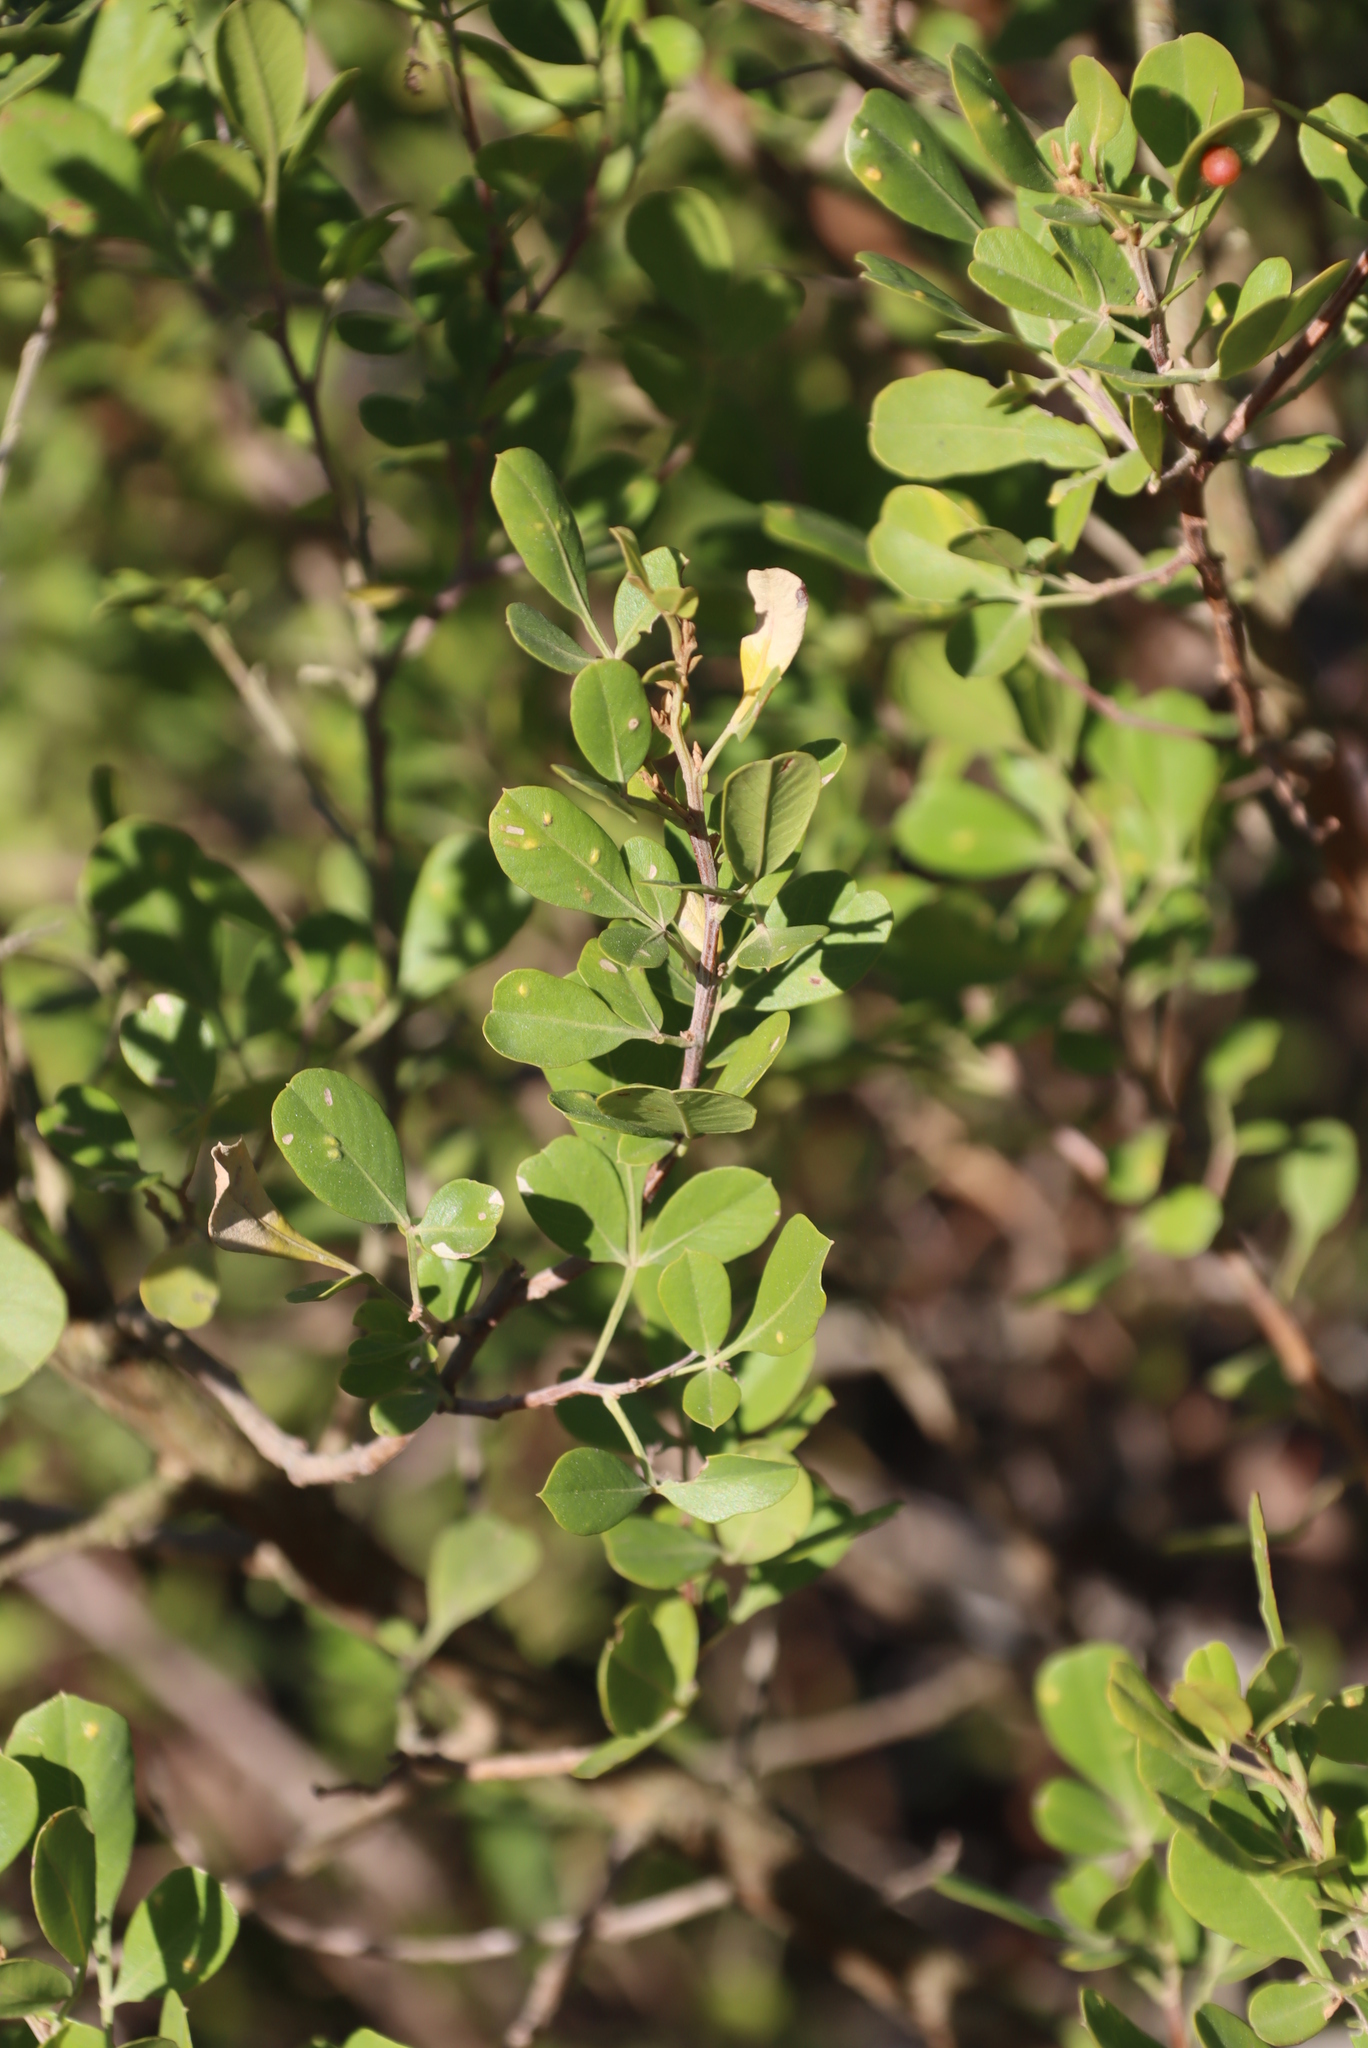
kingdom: Plantae
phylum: Tracheophyta
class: Magnoliopsida
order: Sapindales
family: Anacardiaceae
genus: Searsia
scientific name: Searsia lucida
